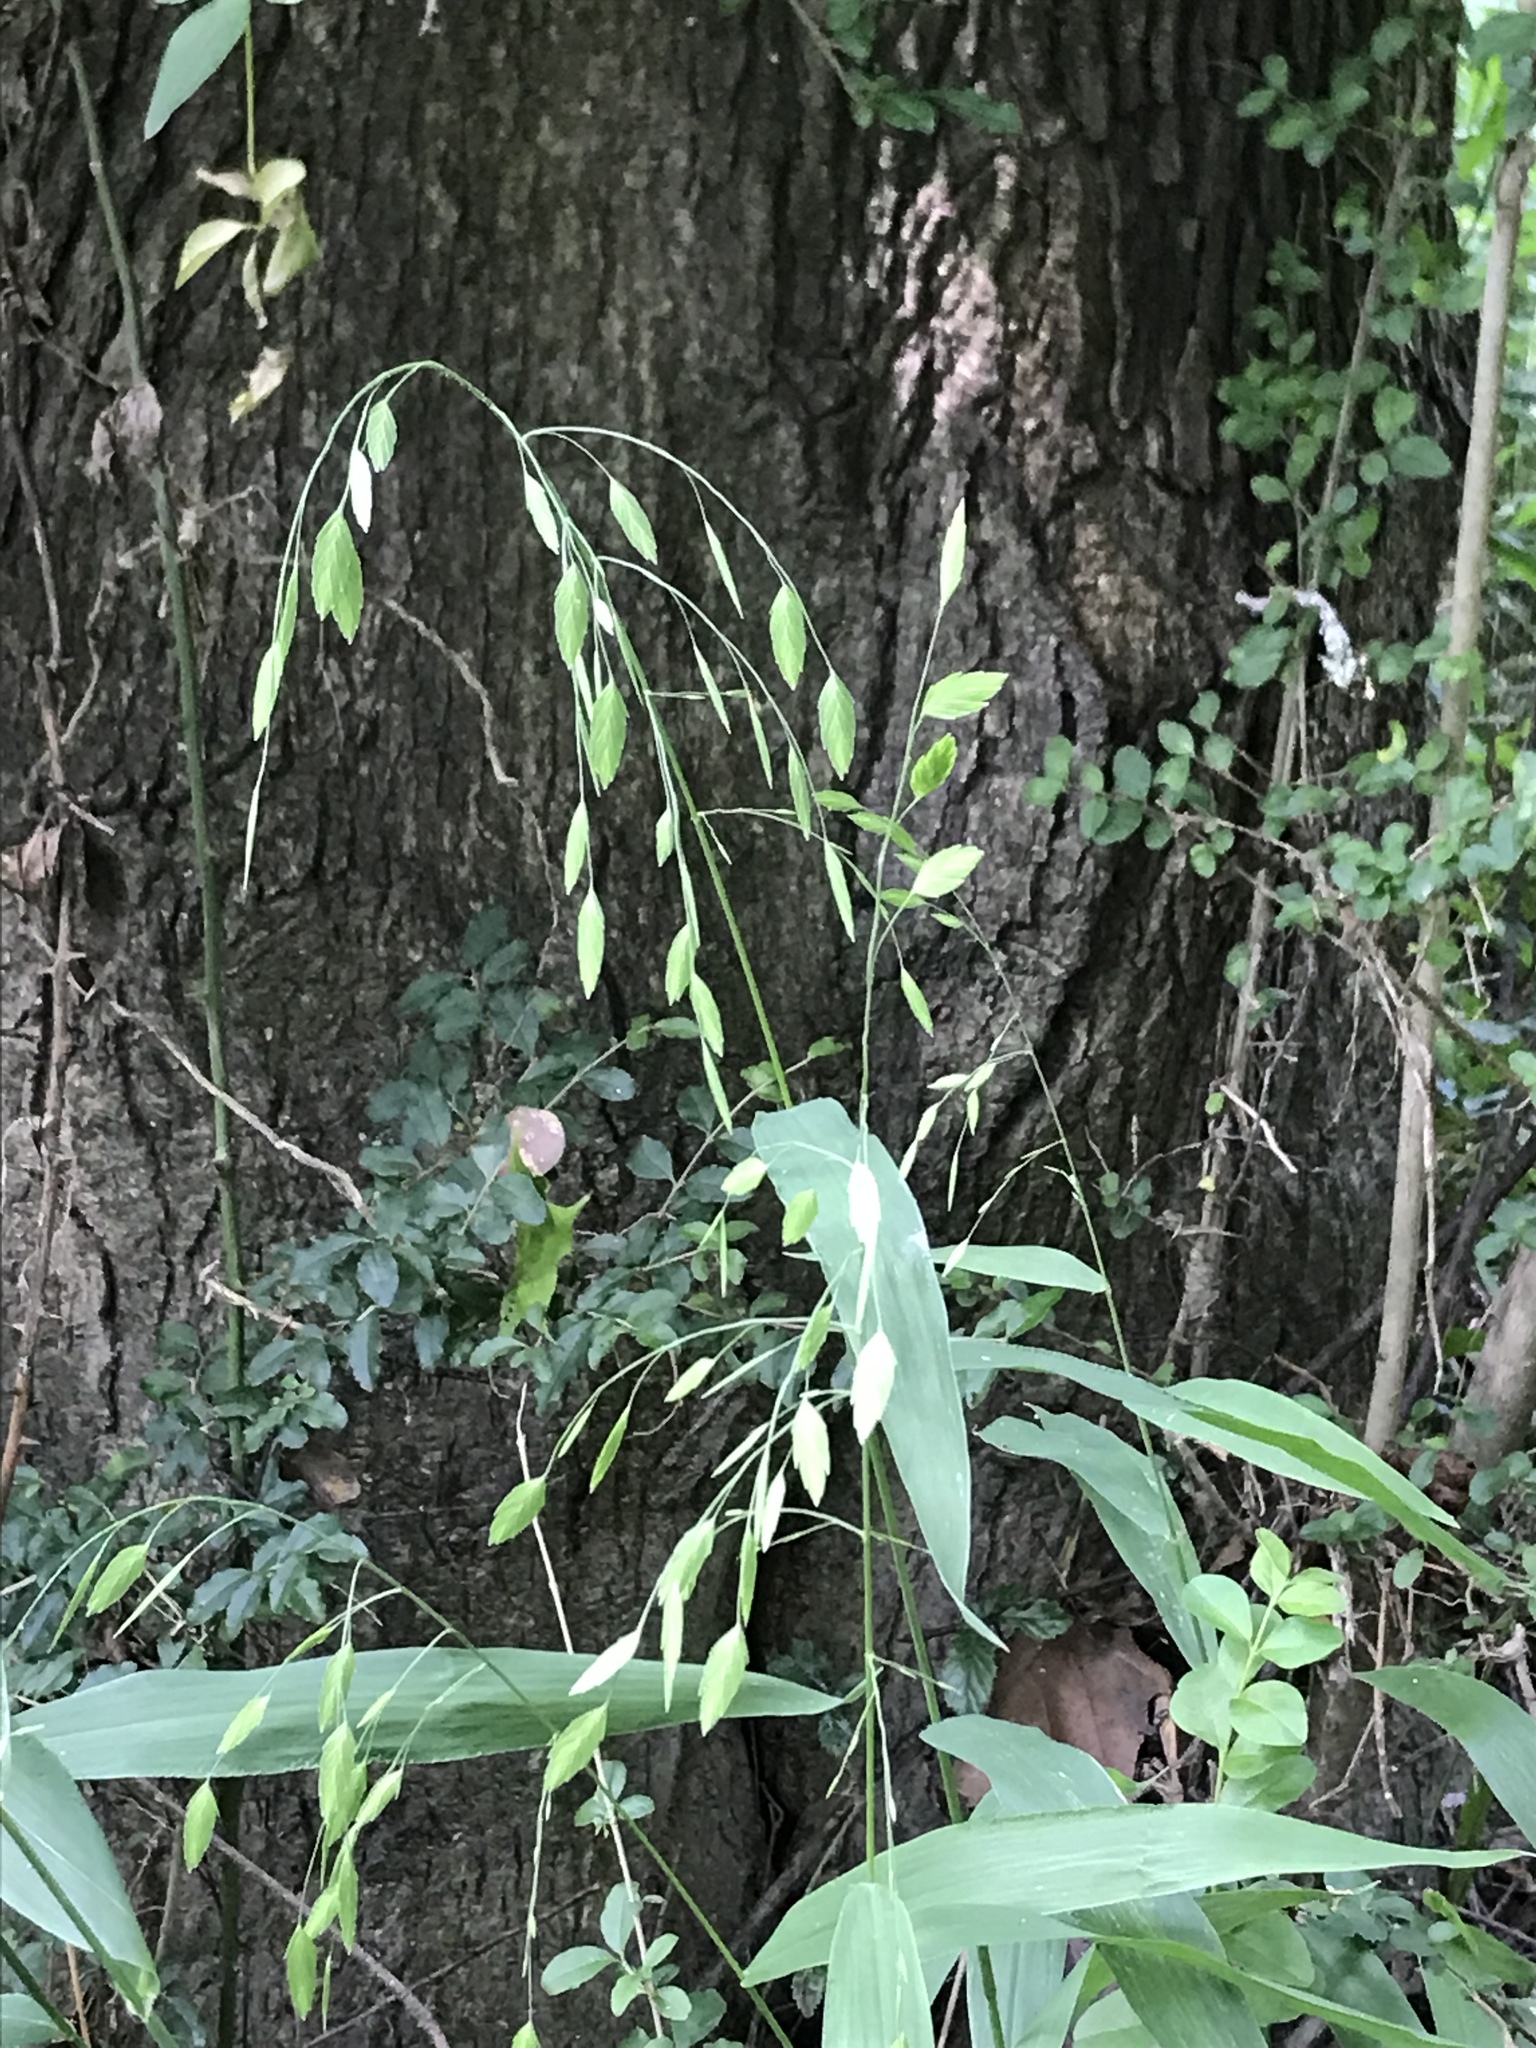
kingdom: Plantae
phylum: Tracheophyta
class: Liliopsida
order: Poales
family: Poaceae
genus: Chasmanthium
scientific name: Chasmanthium latifolium
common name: Broad-leaved chasmanthium
